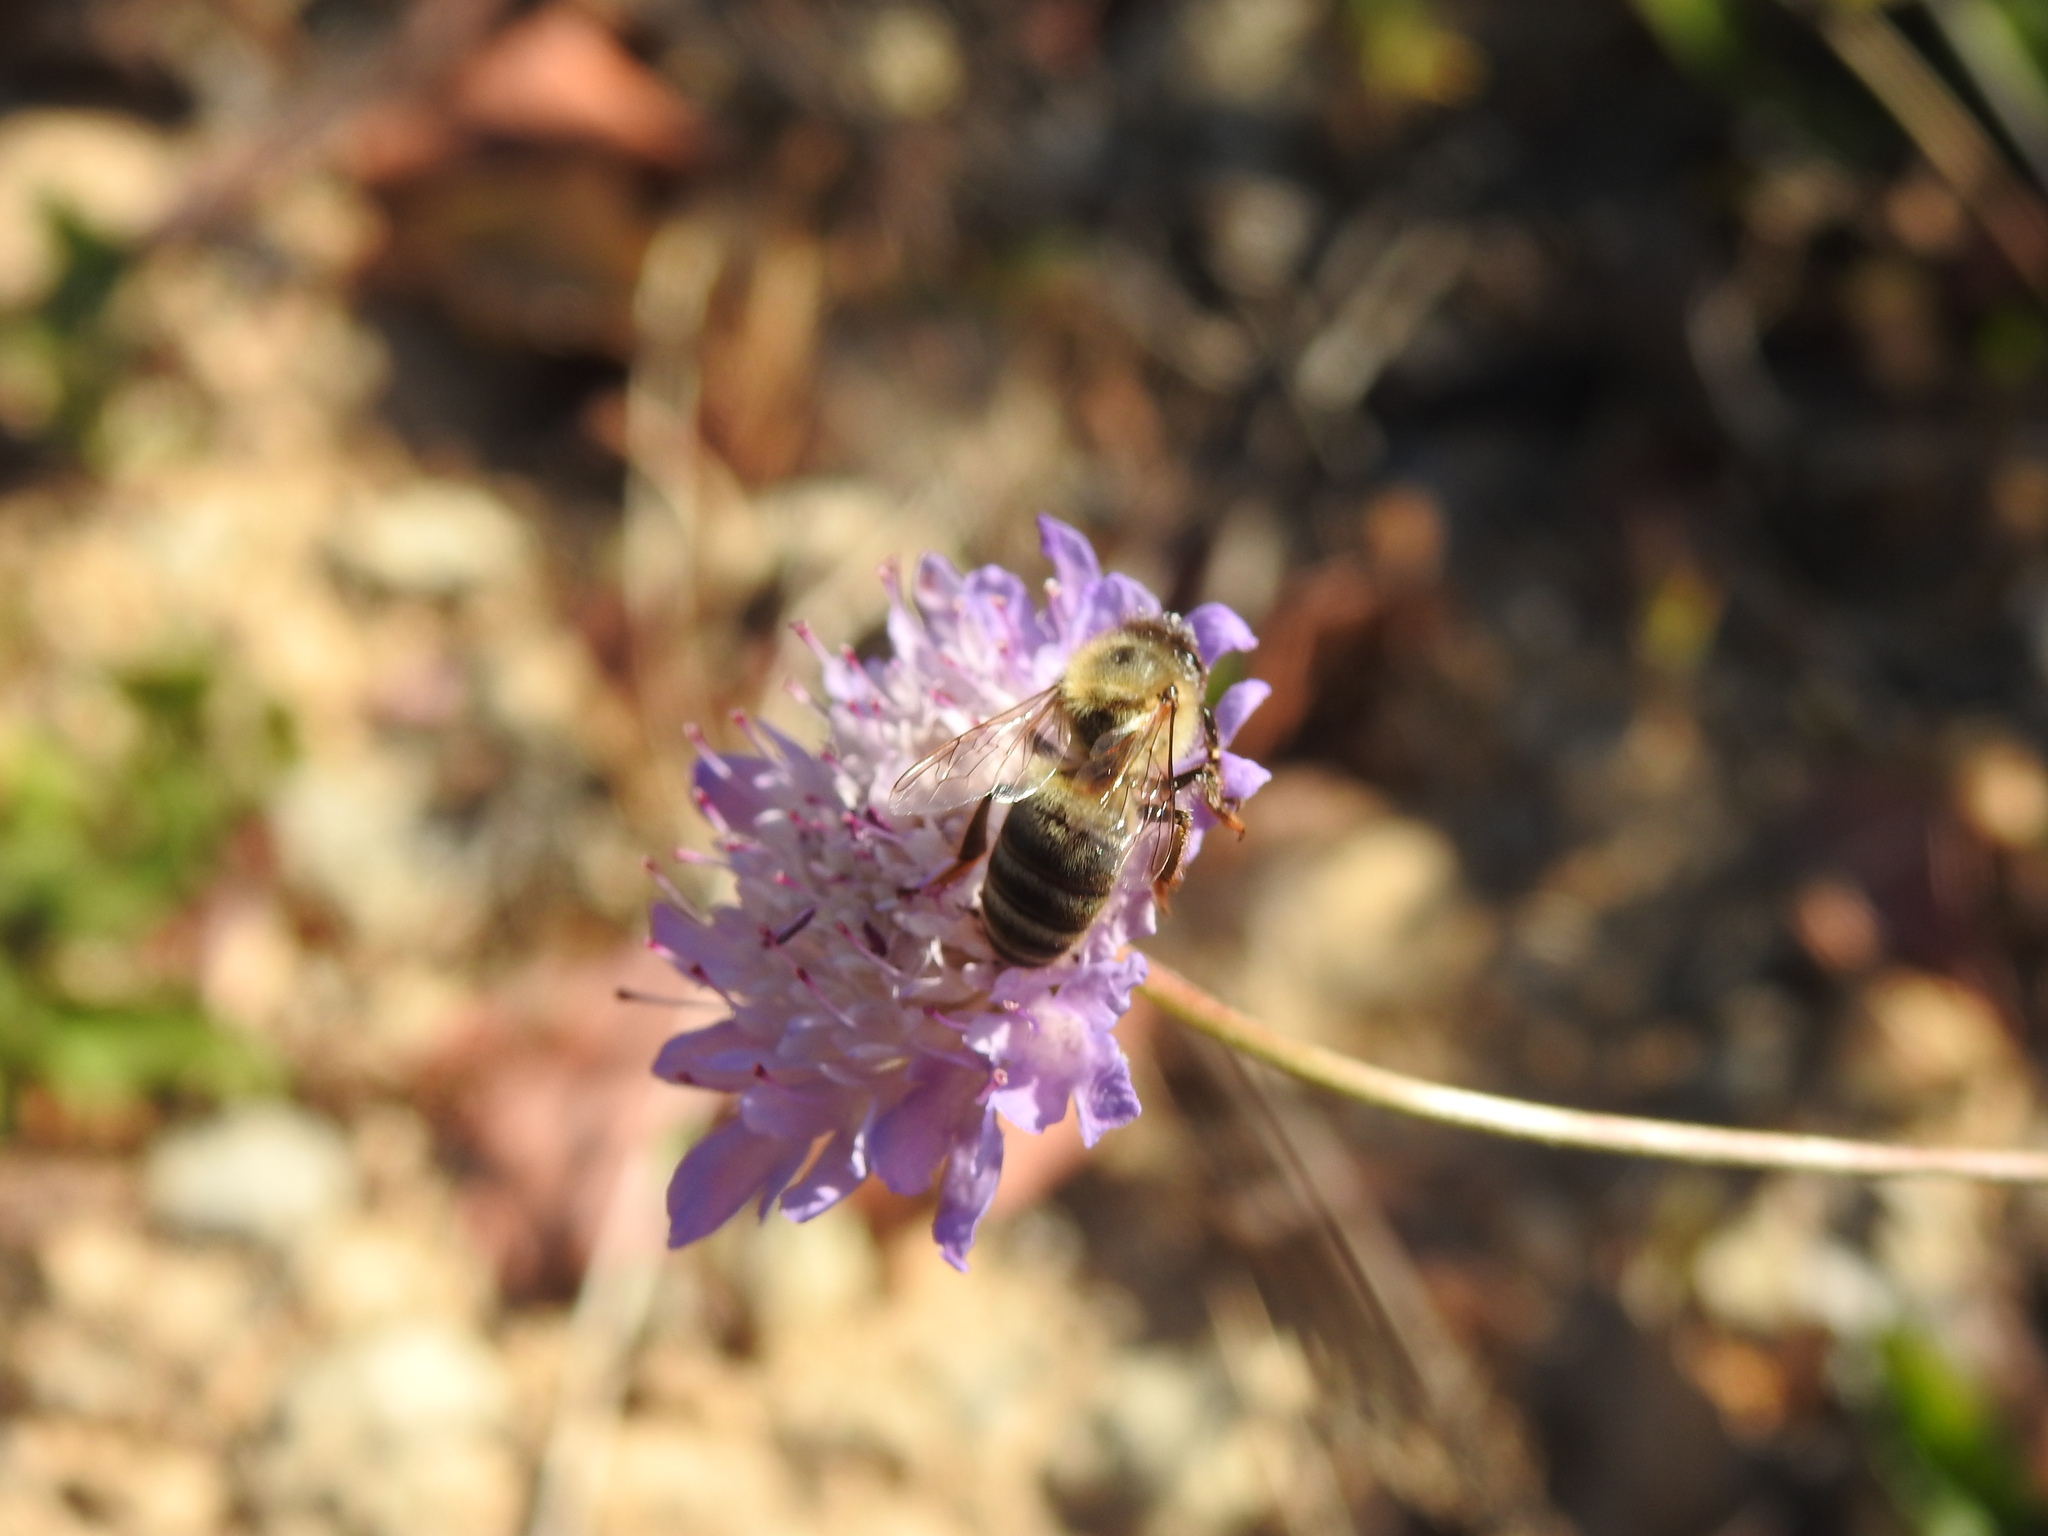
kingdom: Animalia
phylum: Arthropoda
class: Insecta
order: Hymenoptera
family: Apidae
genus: Apis
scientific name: Apis mellifera
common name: Honey bee
